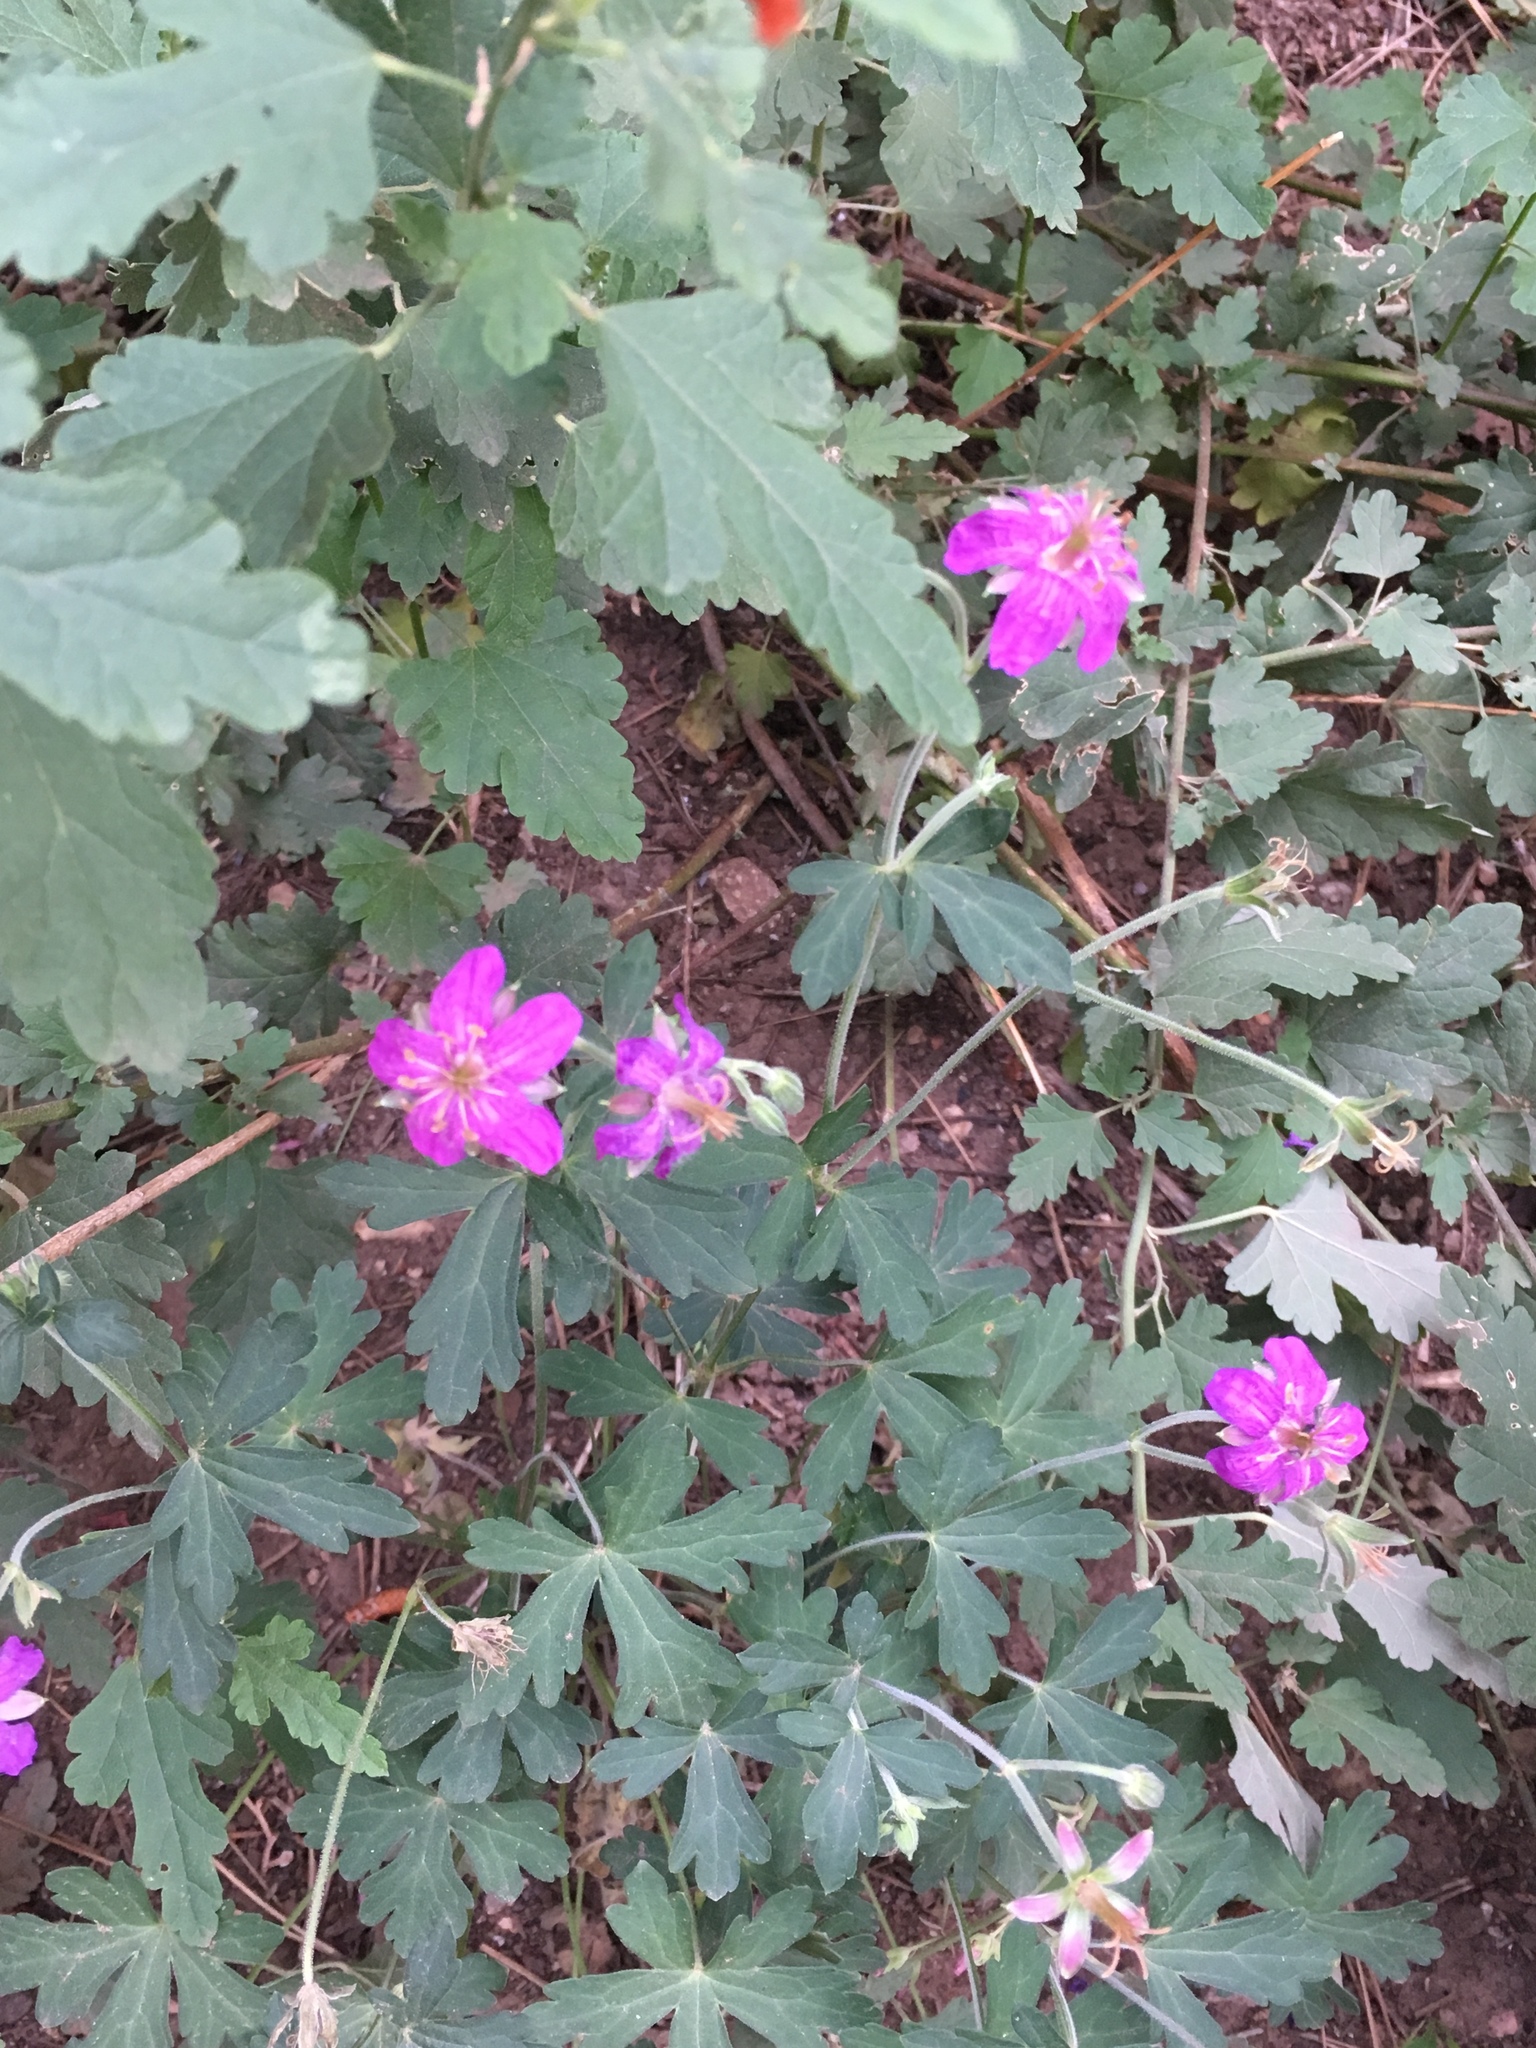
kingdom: Plantae
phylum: Tracheophyta
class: Magnoliopsida
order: Geraniales
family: Geraniaceae
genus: Geranium
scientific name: Geranium caespitosum
